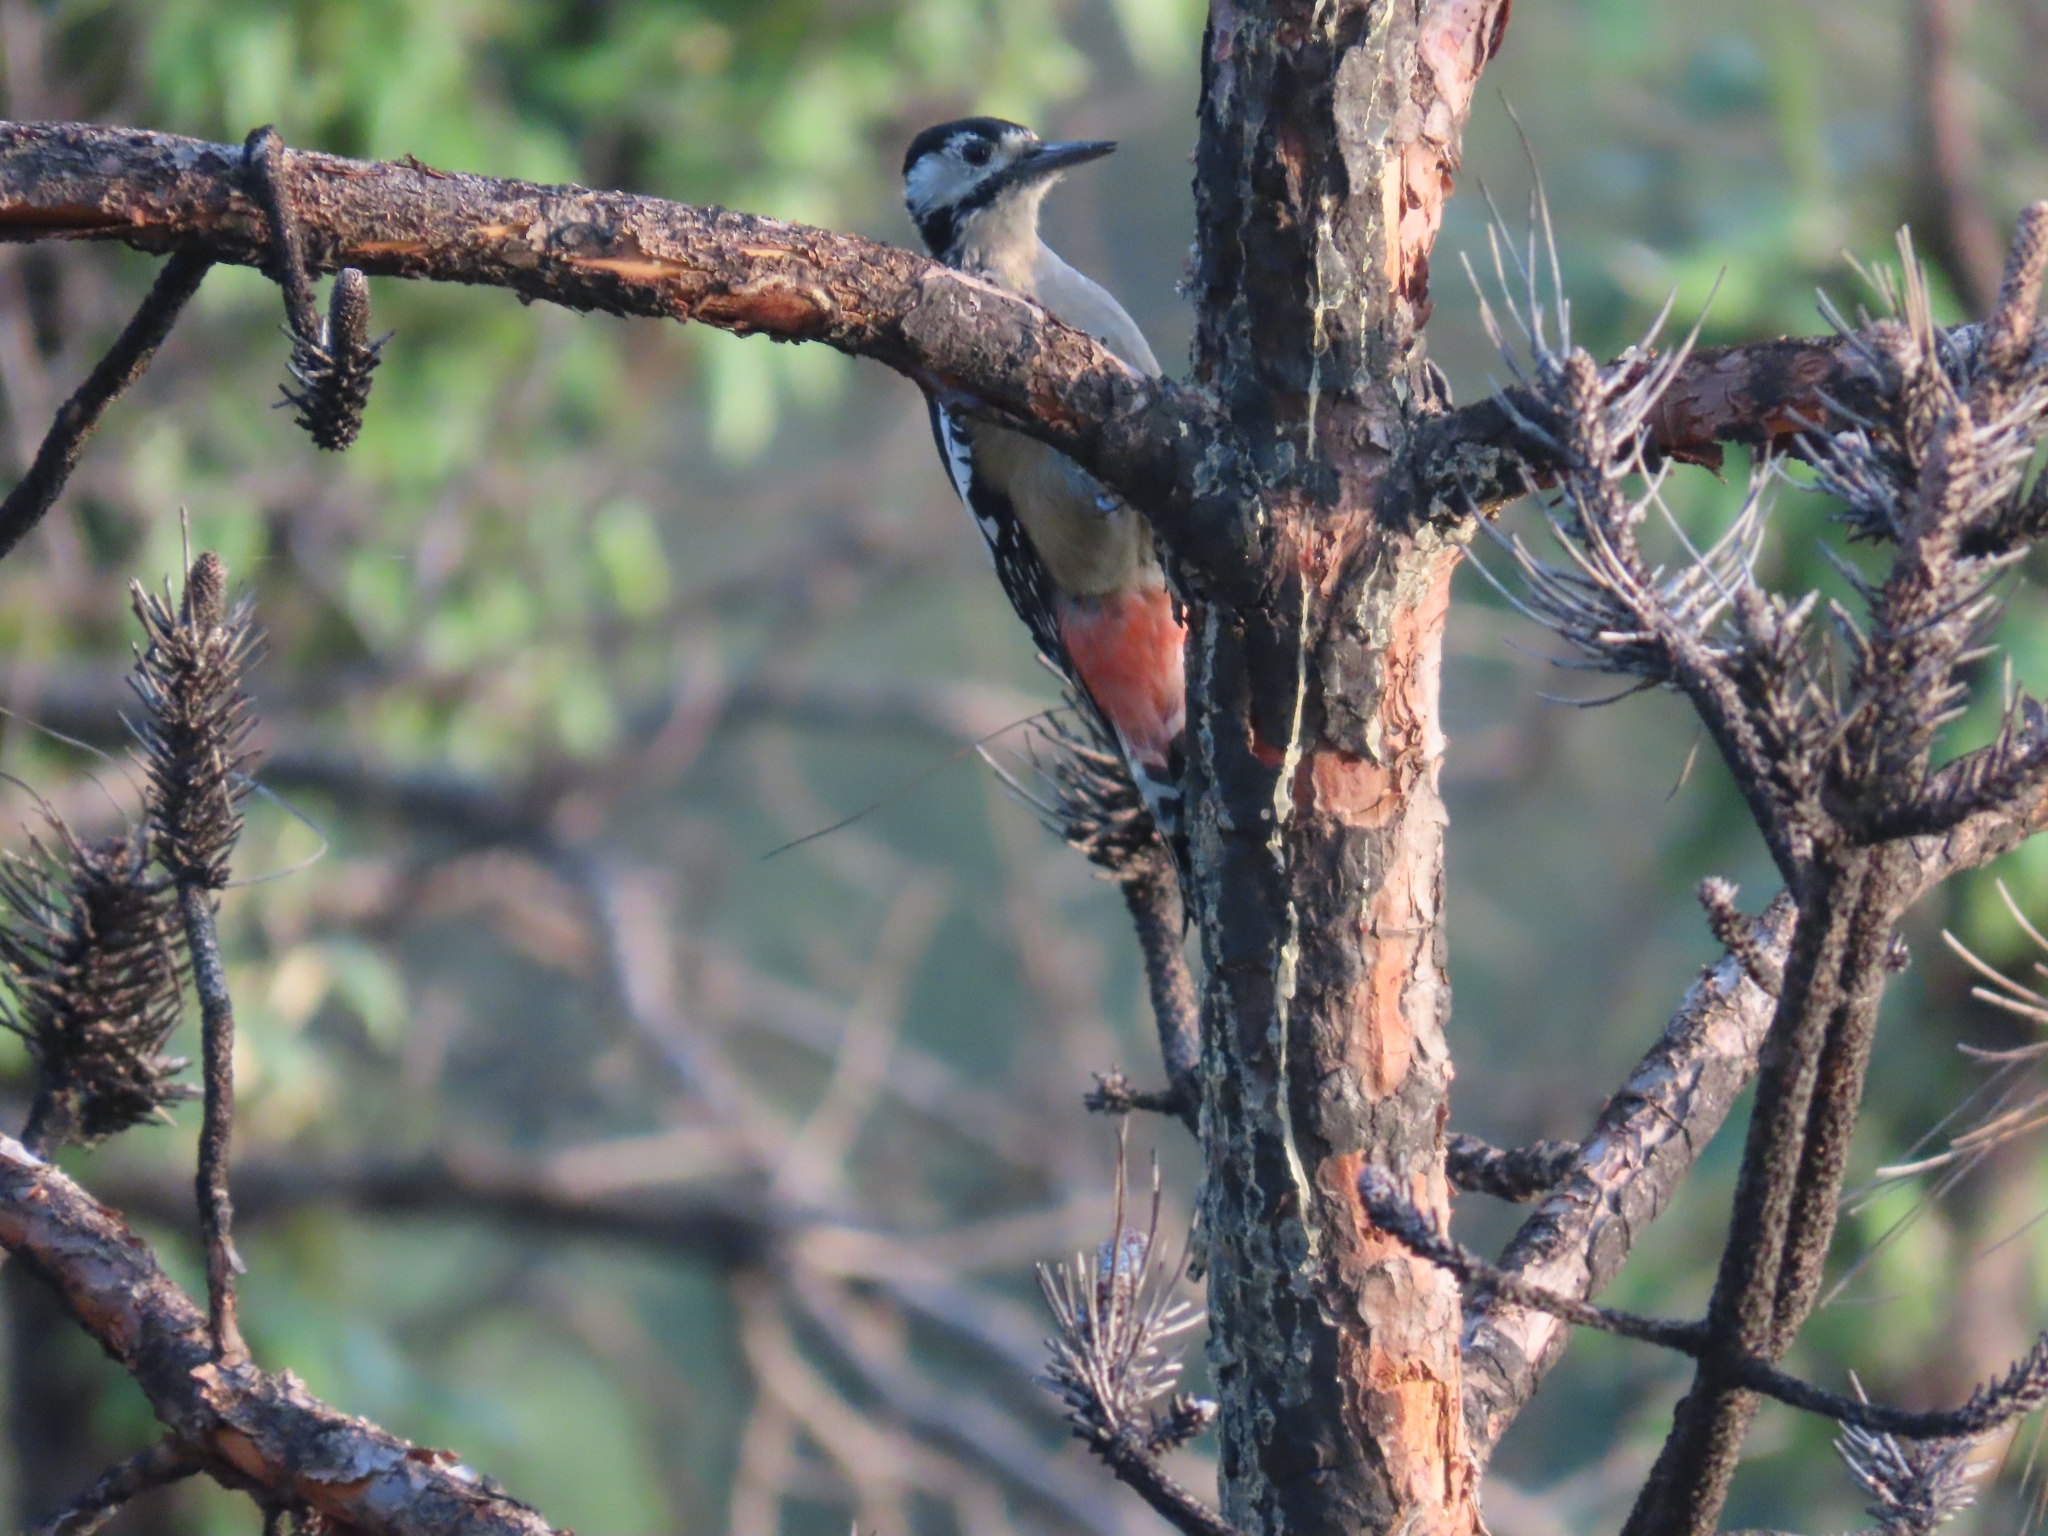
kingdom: Animalia
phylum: Chordata
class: Aves
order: Piciformes
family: Picidae
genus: Dendrocopos
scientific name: Dendrocopos himalayensis
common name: Himalayan woodpecker
